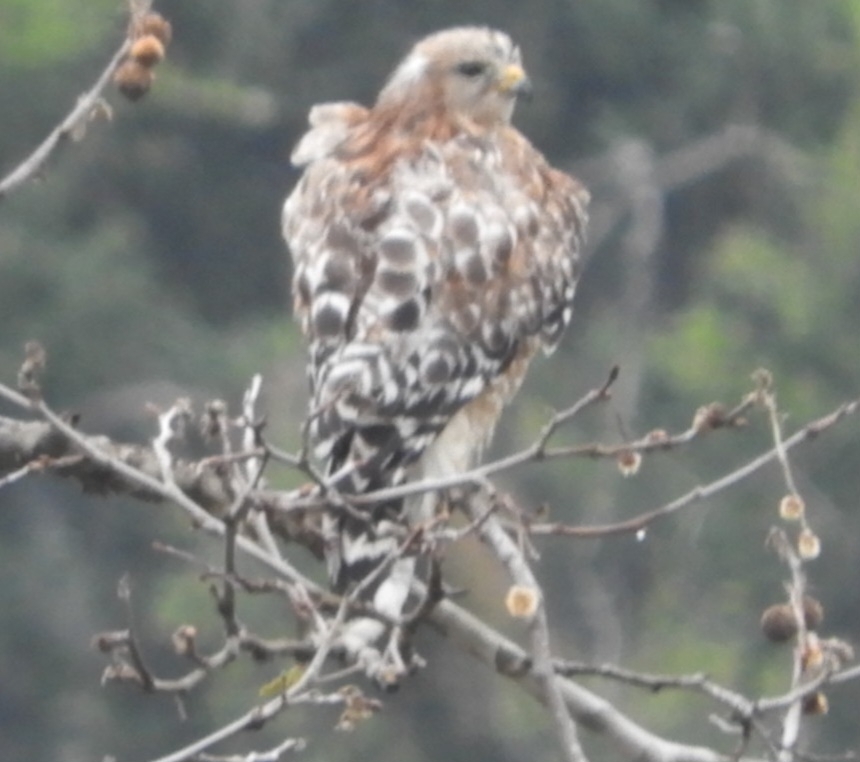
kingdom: Animalia
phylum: Chordata
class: Aves
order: Accipitriformes
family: Accipitridae
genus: Buteo
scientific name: Buteo lineatus
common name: Red-shouldered hawk
